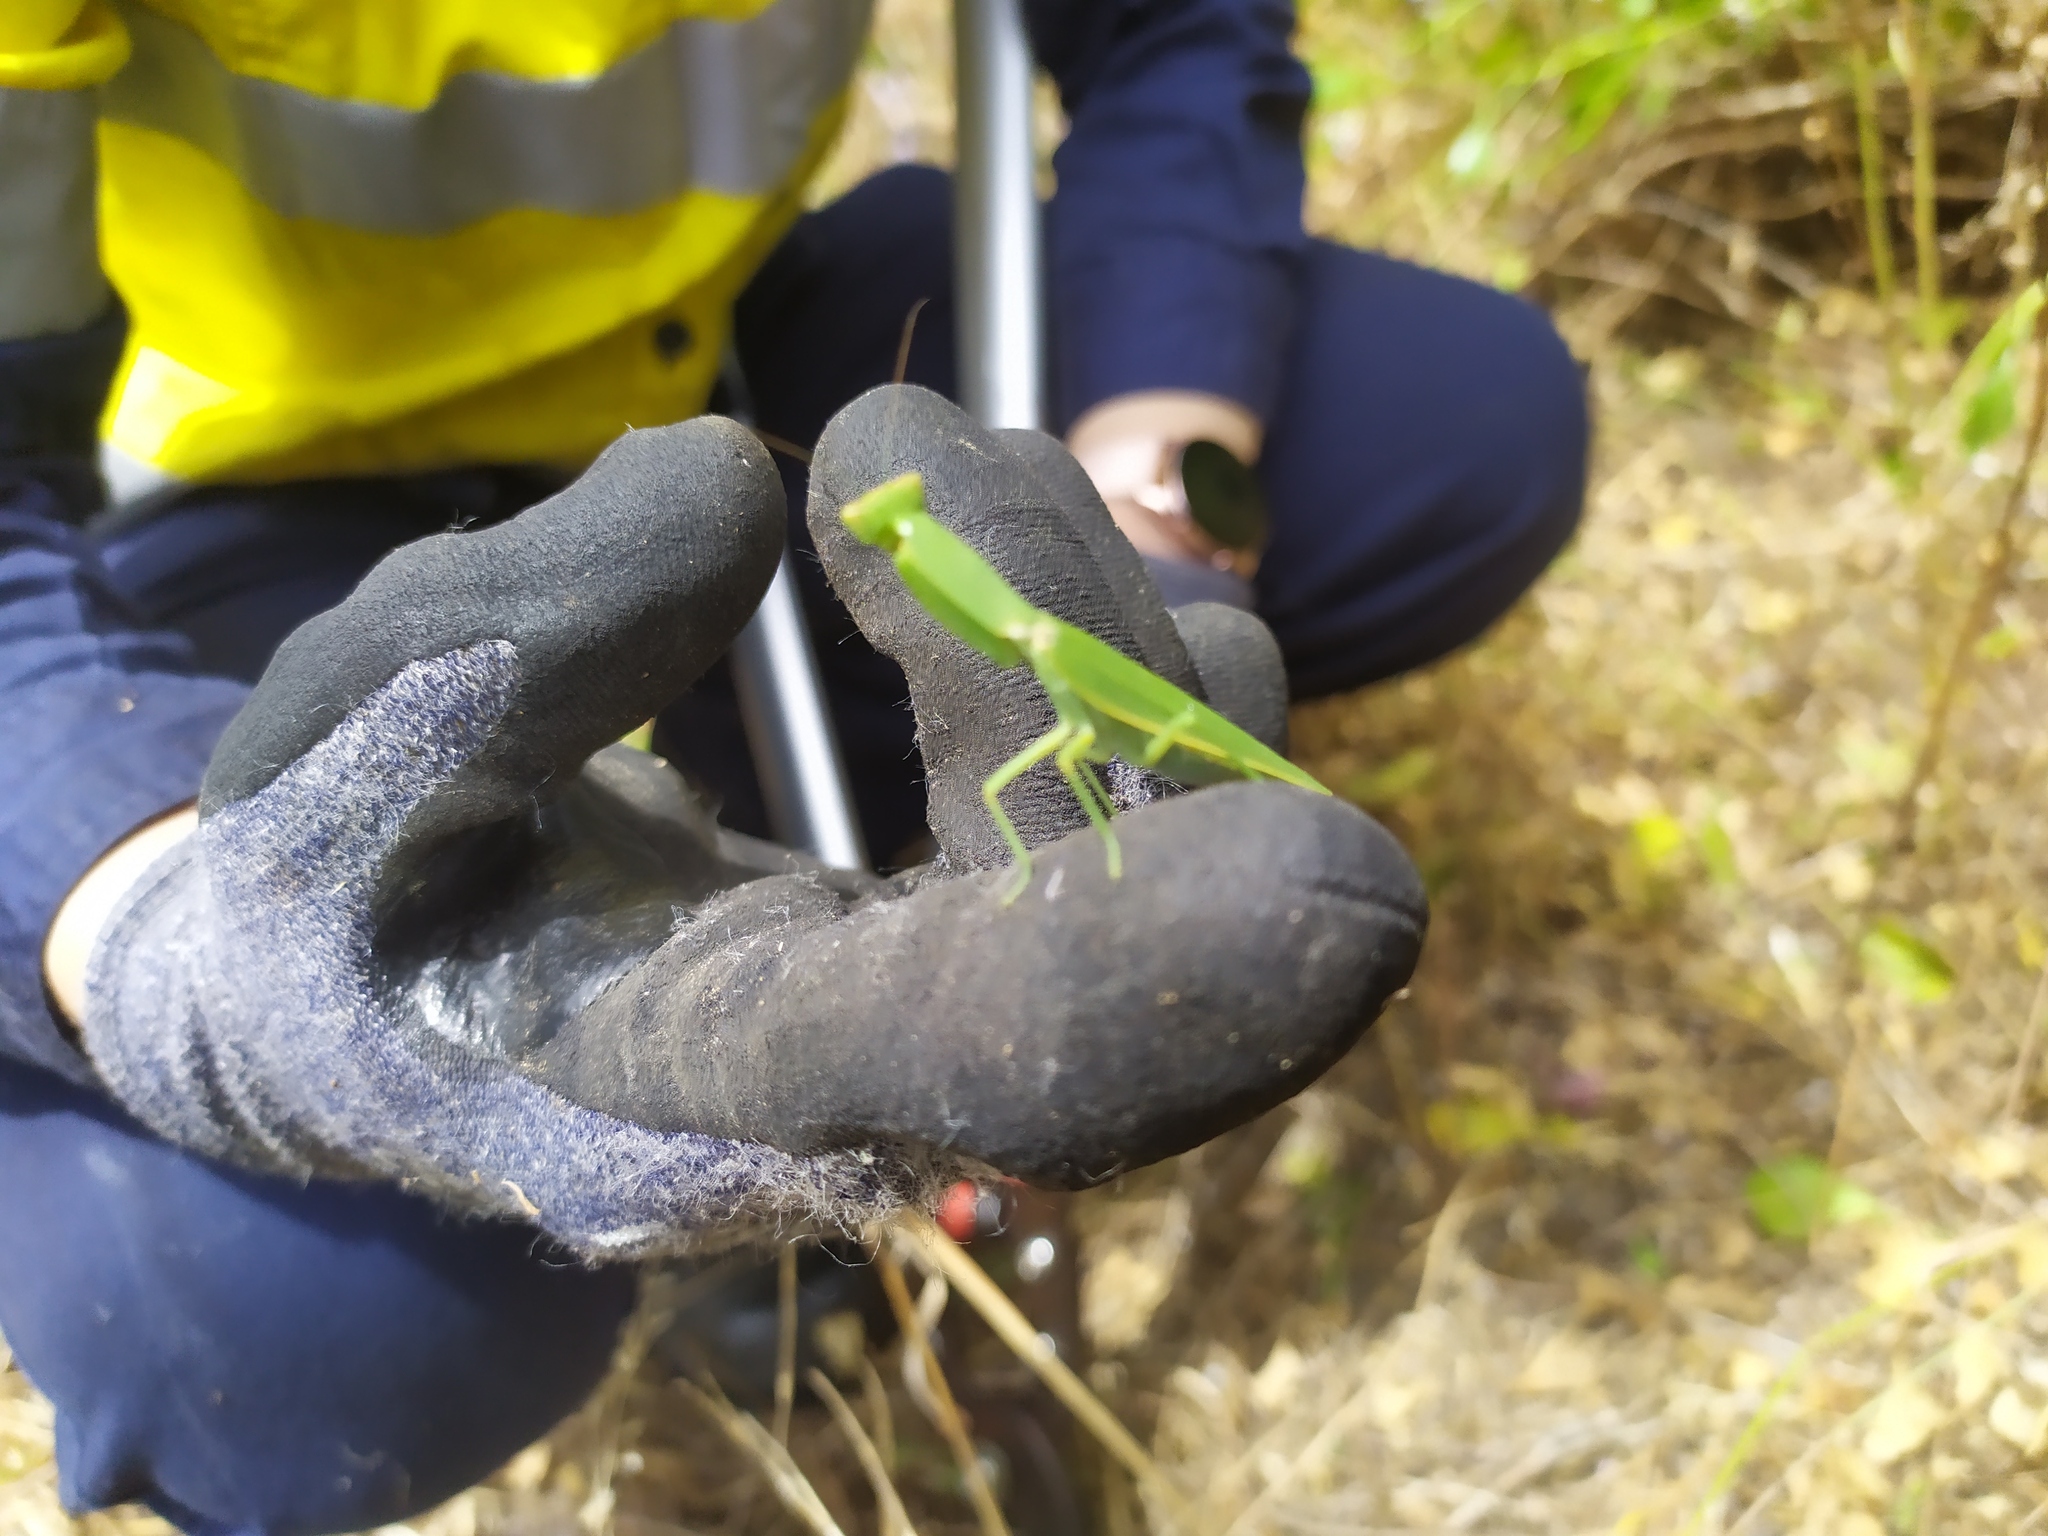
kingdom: Animalia
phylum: Arthropoda
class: Insecta
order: Mantodea
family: Mantidae
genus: Orthodera
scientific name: Orthodera ministralis
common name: Mantis
